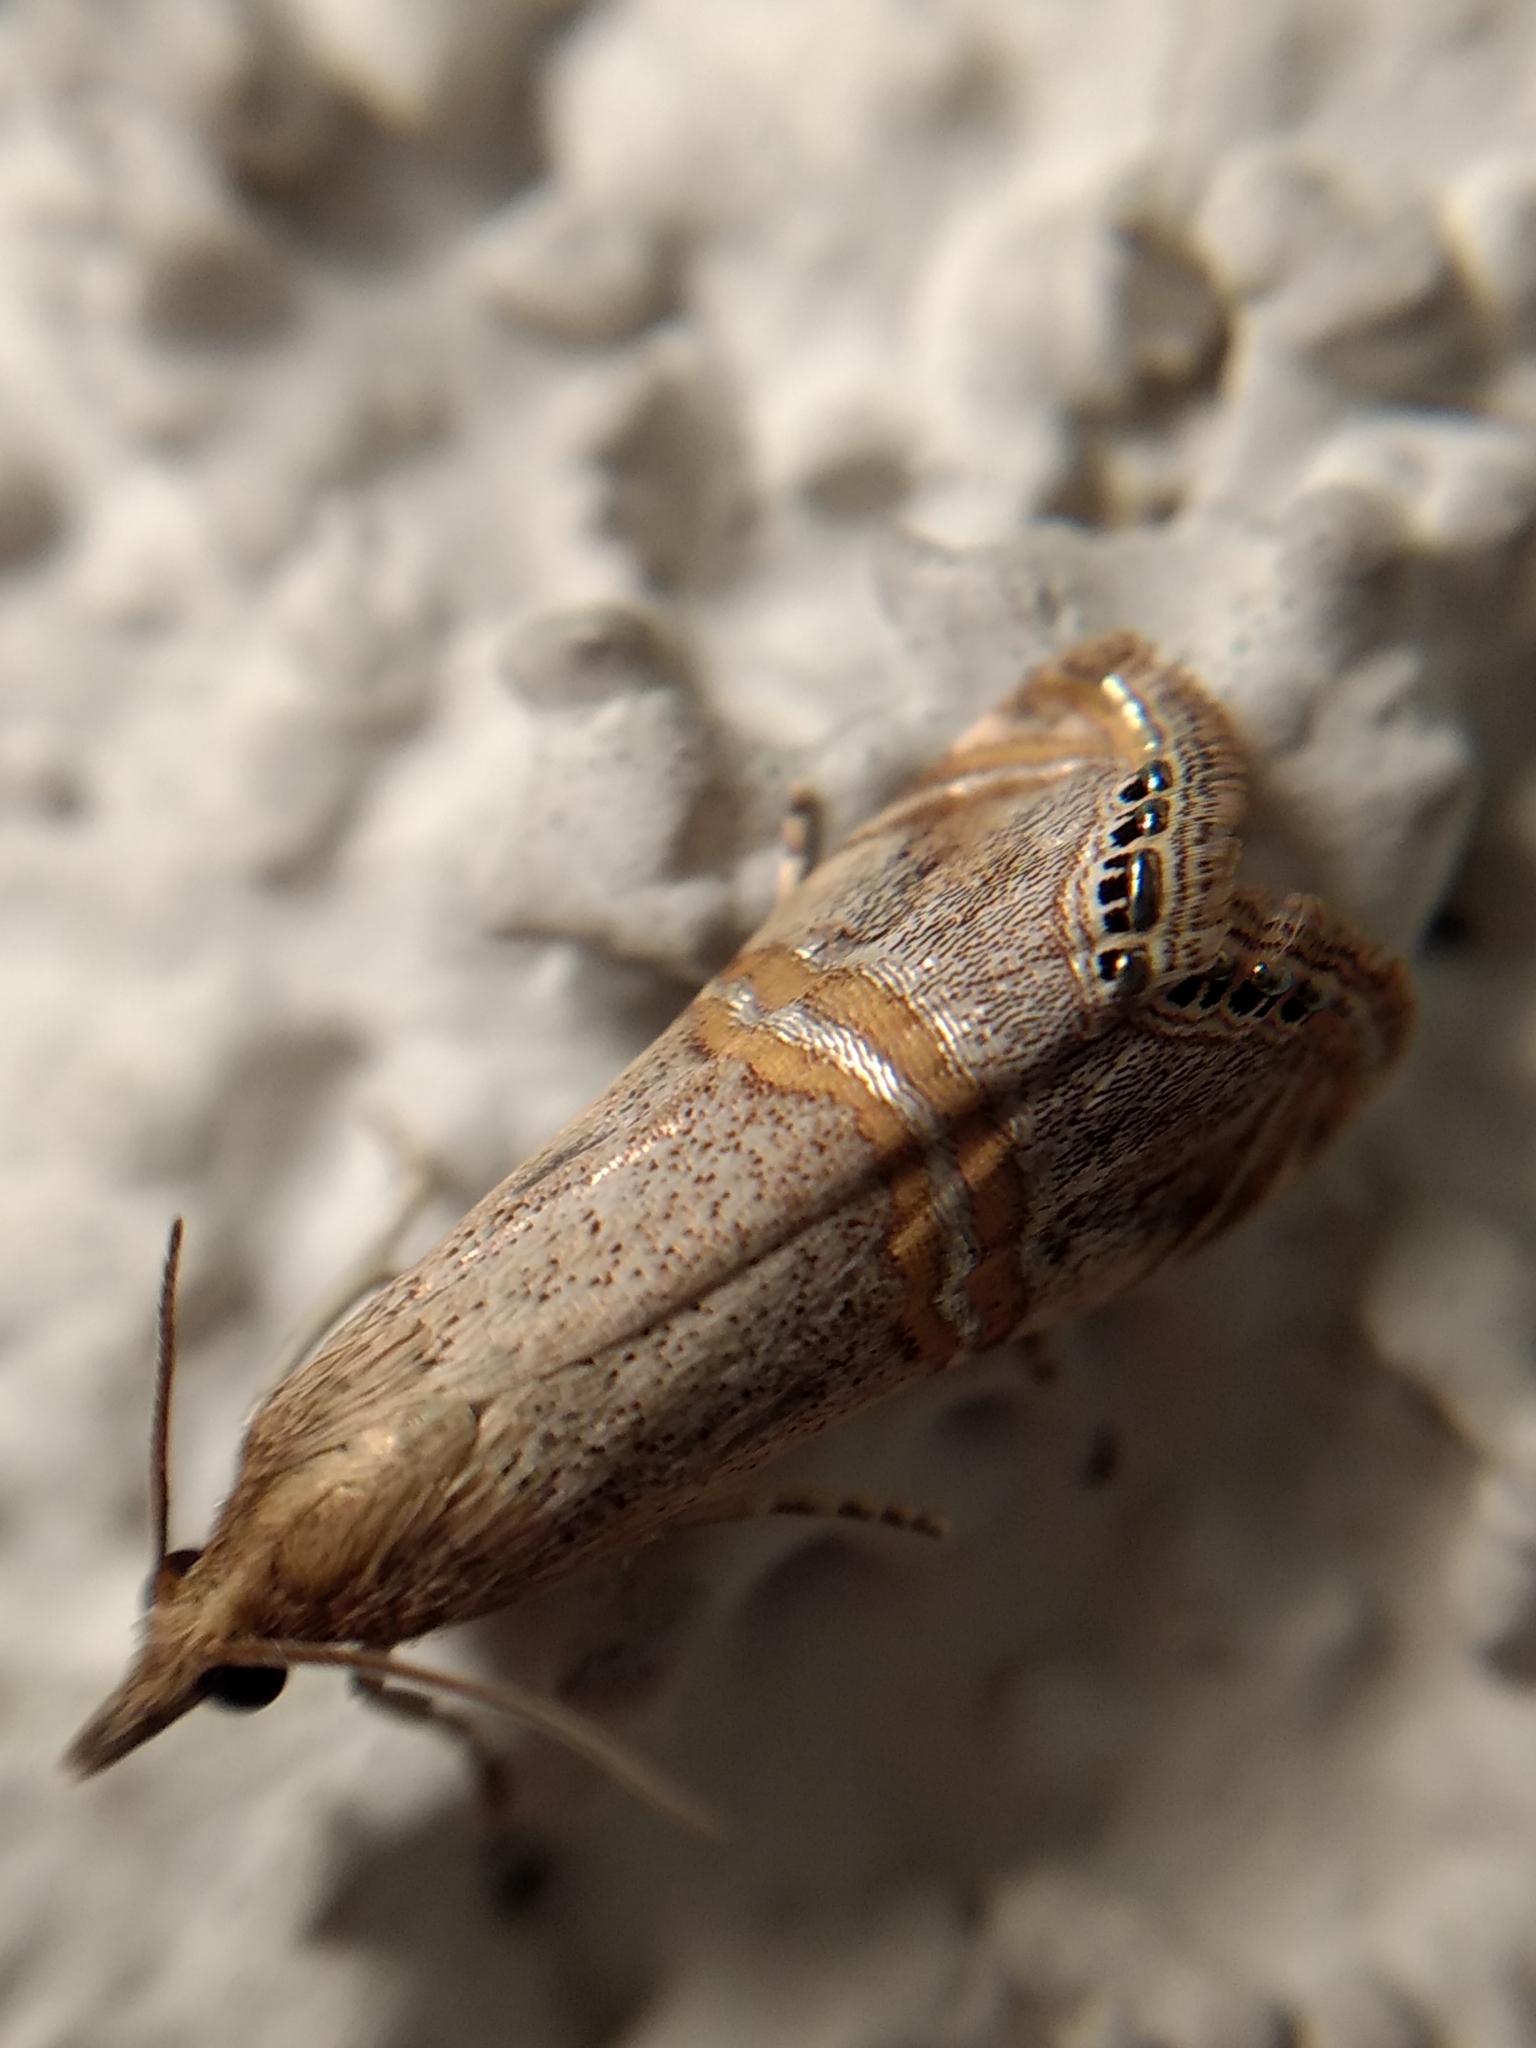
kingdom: Animalia
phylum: Arthropoda
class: Insecta
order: Lepidoptera
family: Crambidae
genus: Euchromius
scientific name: Euchromius ocellea
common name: Necklace veneer moth
